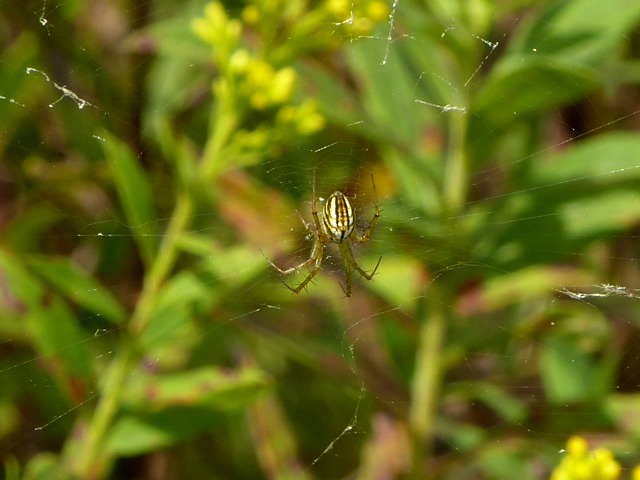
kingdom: Animalia
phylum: Arthropoda
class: Arachnida
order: Araneae
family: Araneidae
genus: Mangora
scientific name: Mangora gibberosa
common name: Lined orbweaver
